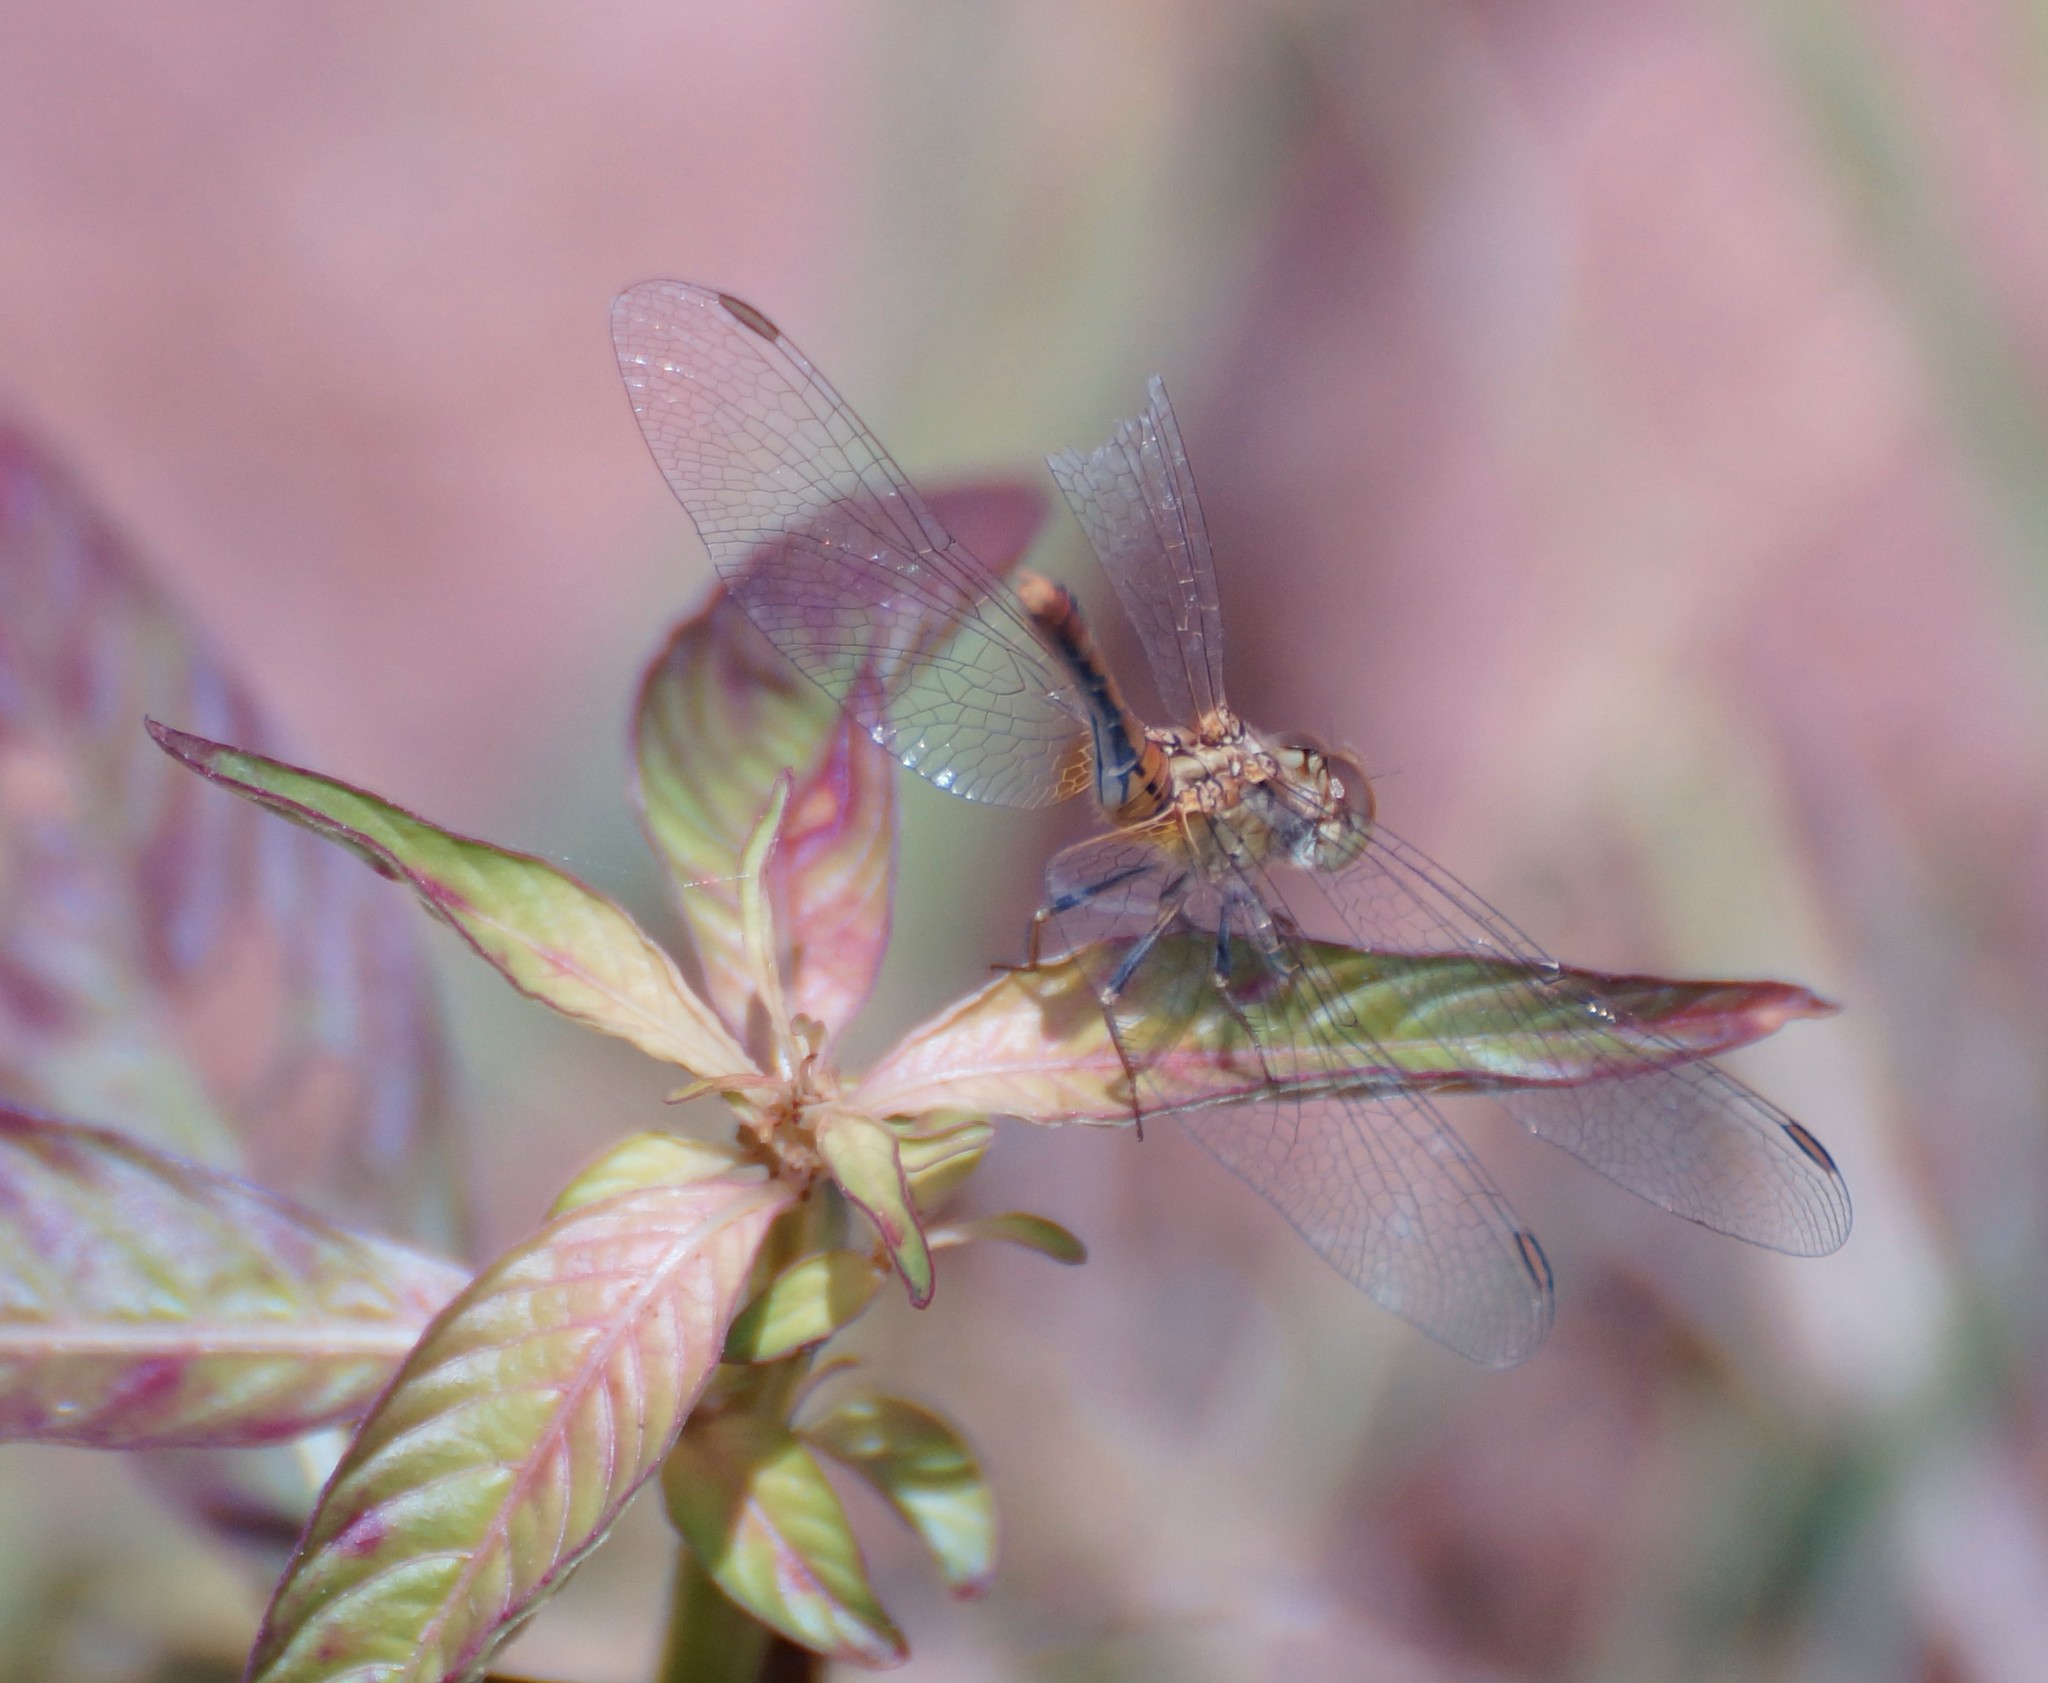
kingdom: Animalia
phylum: Arthropoda
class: Insecta
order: Odonata
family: Libellulidae
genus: Diplacodes
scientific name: Diplacodes bipunctata
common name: Red percher dragonfly
